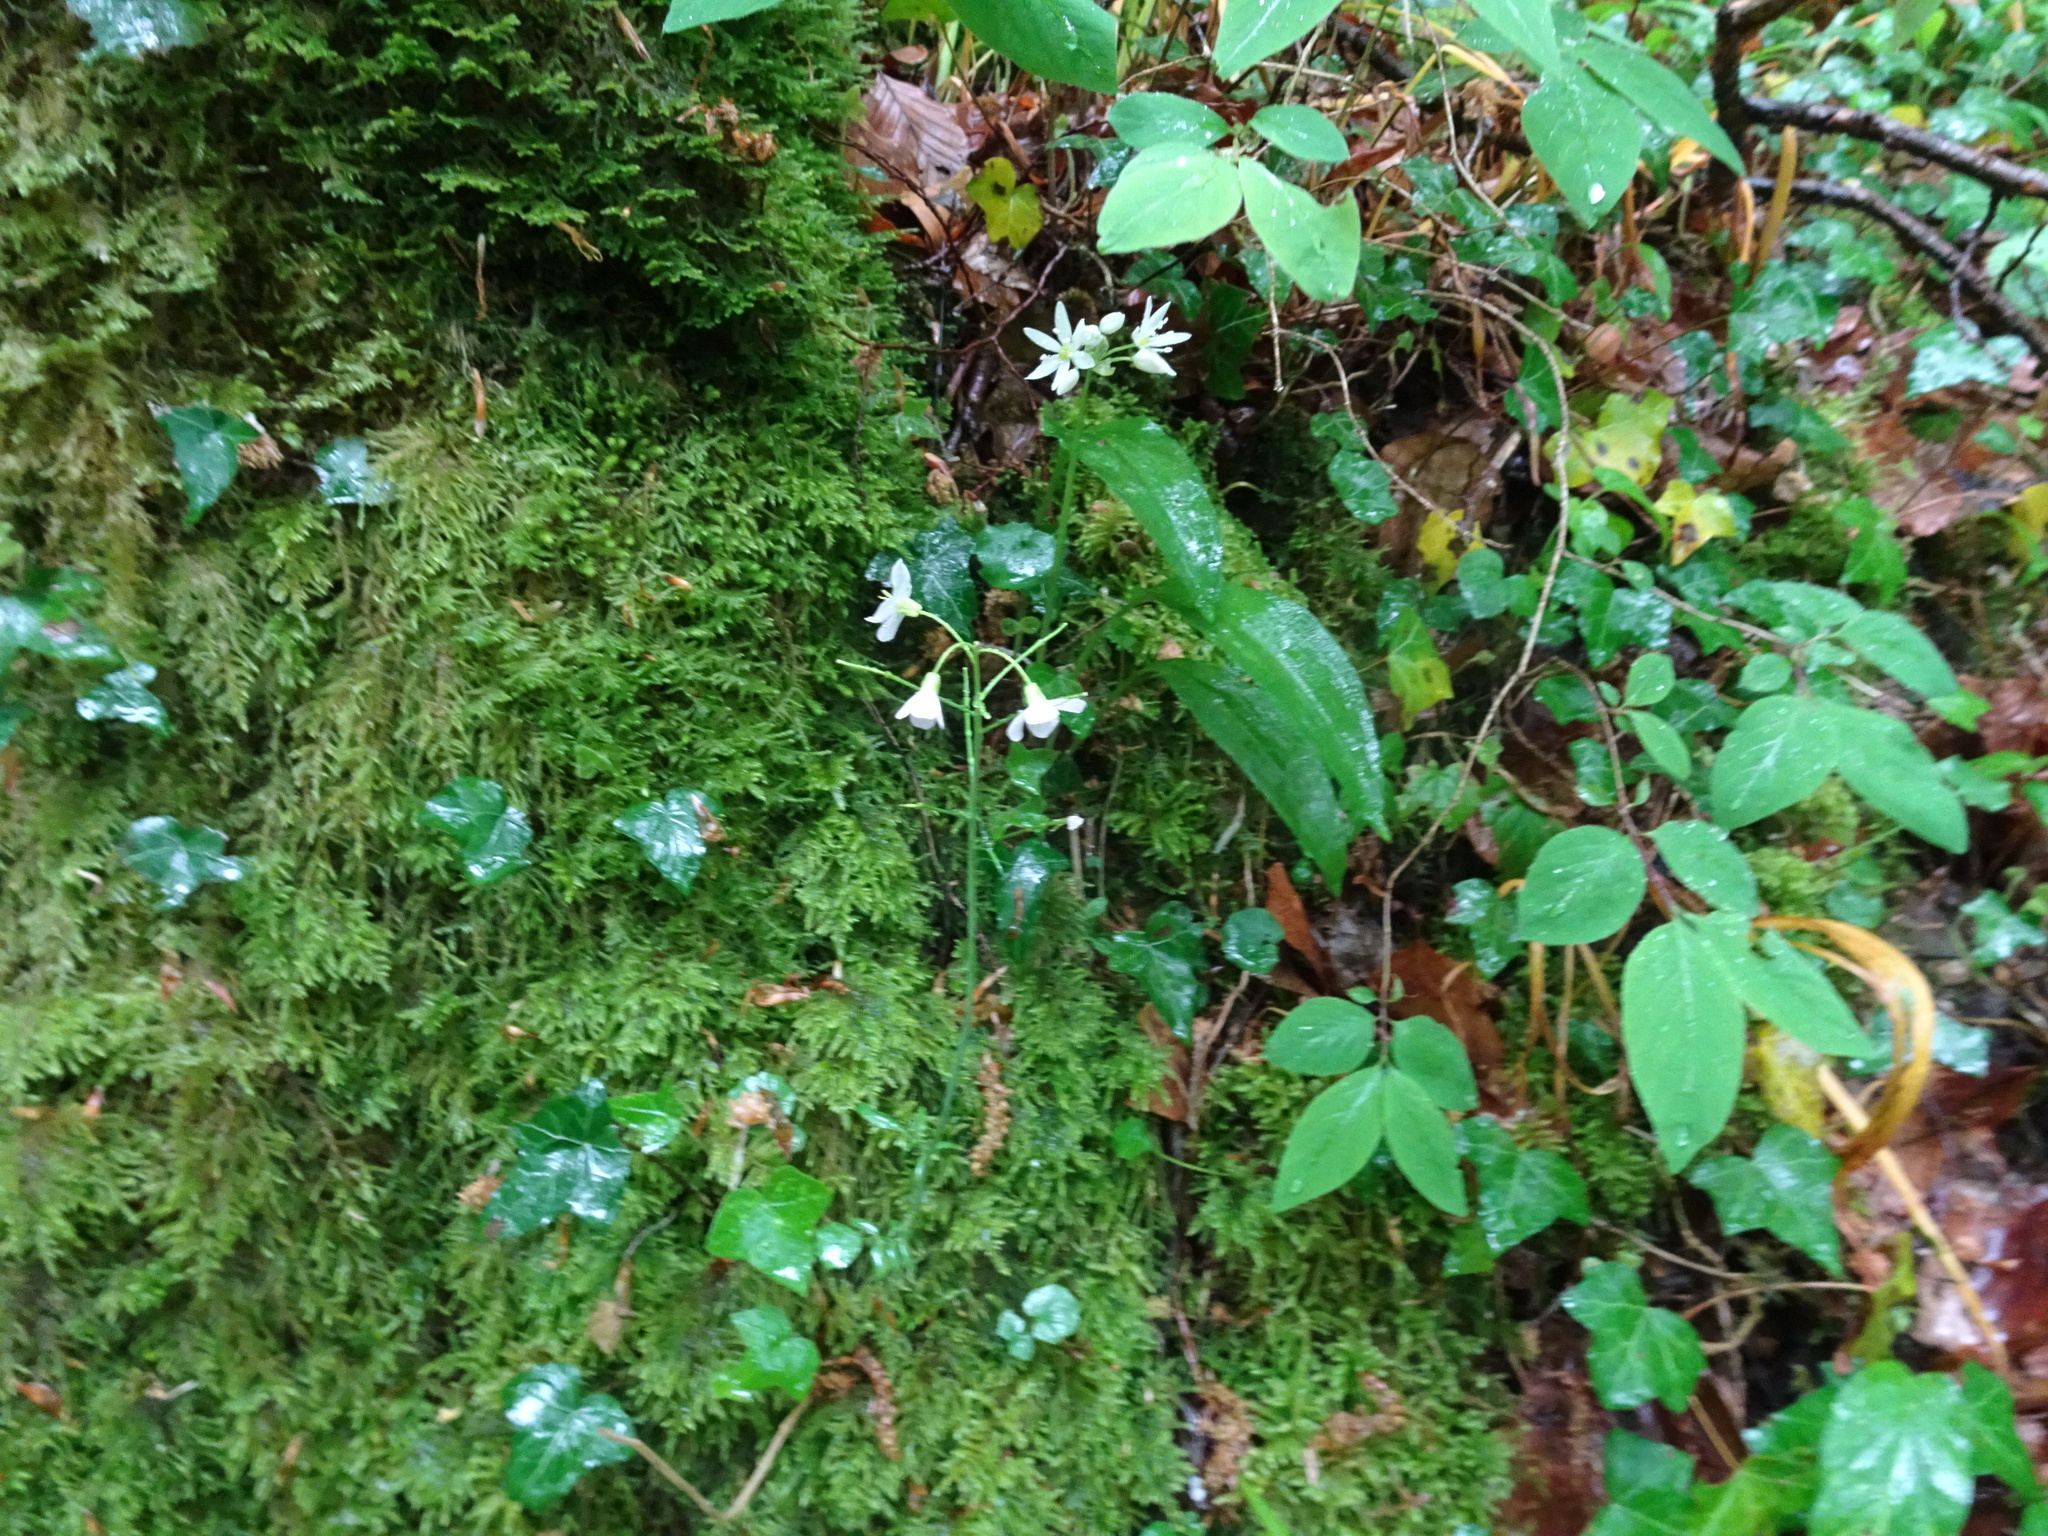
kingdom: Plantae
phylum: Tracheophyta
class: Magnoliopsida
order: Brassicales
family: Brassicaceae
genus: Cardamine
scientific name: Cardamine pratensis
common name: Cuckoo flower
